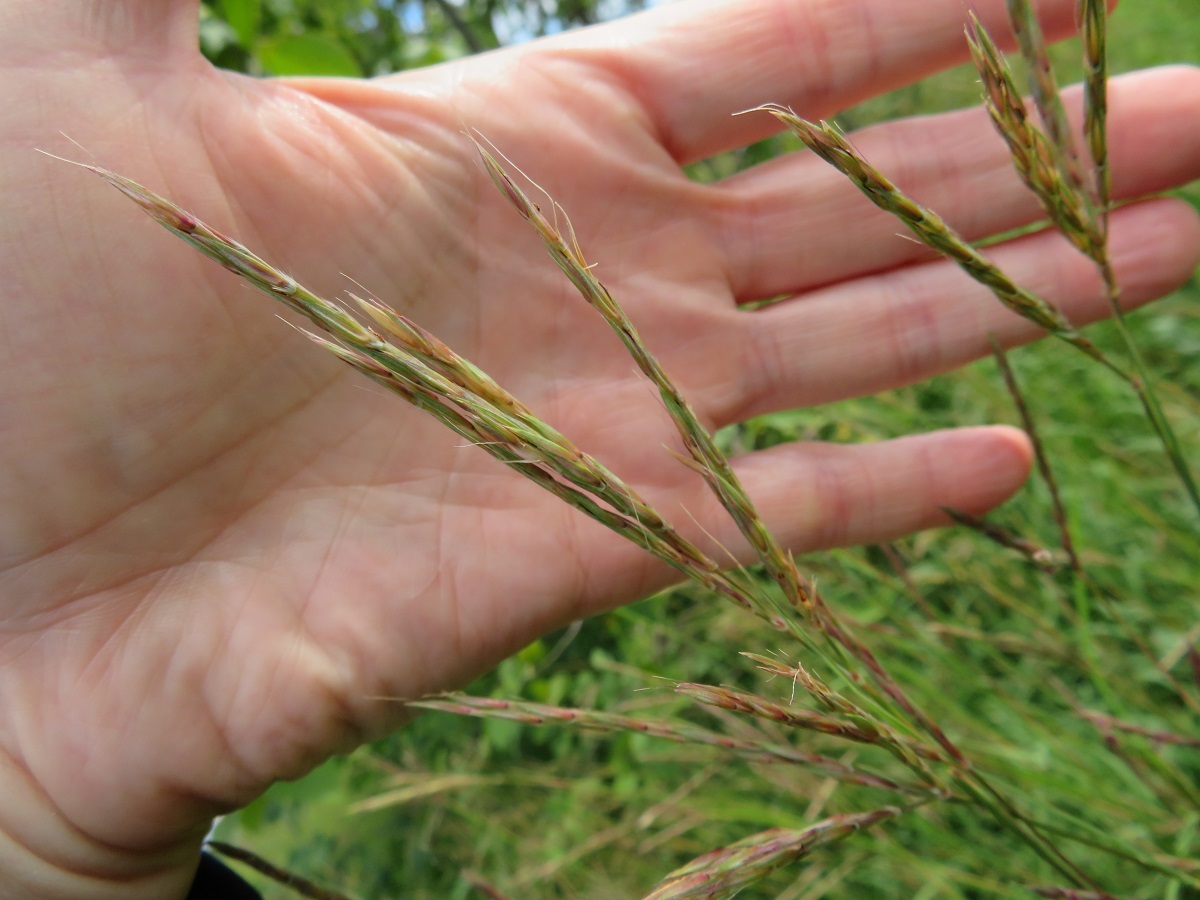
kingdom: Plantae
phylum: Tracheophyta
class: Liliopsida
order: Poales
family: Poaceae
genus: Andropogon
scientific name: Andropogon gerardi
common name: Big bluestem
